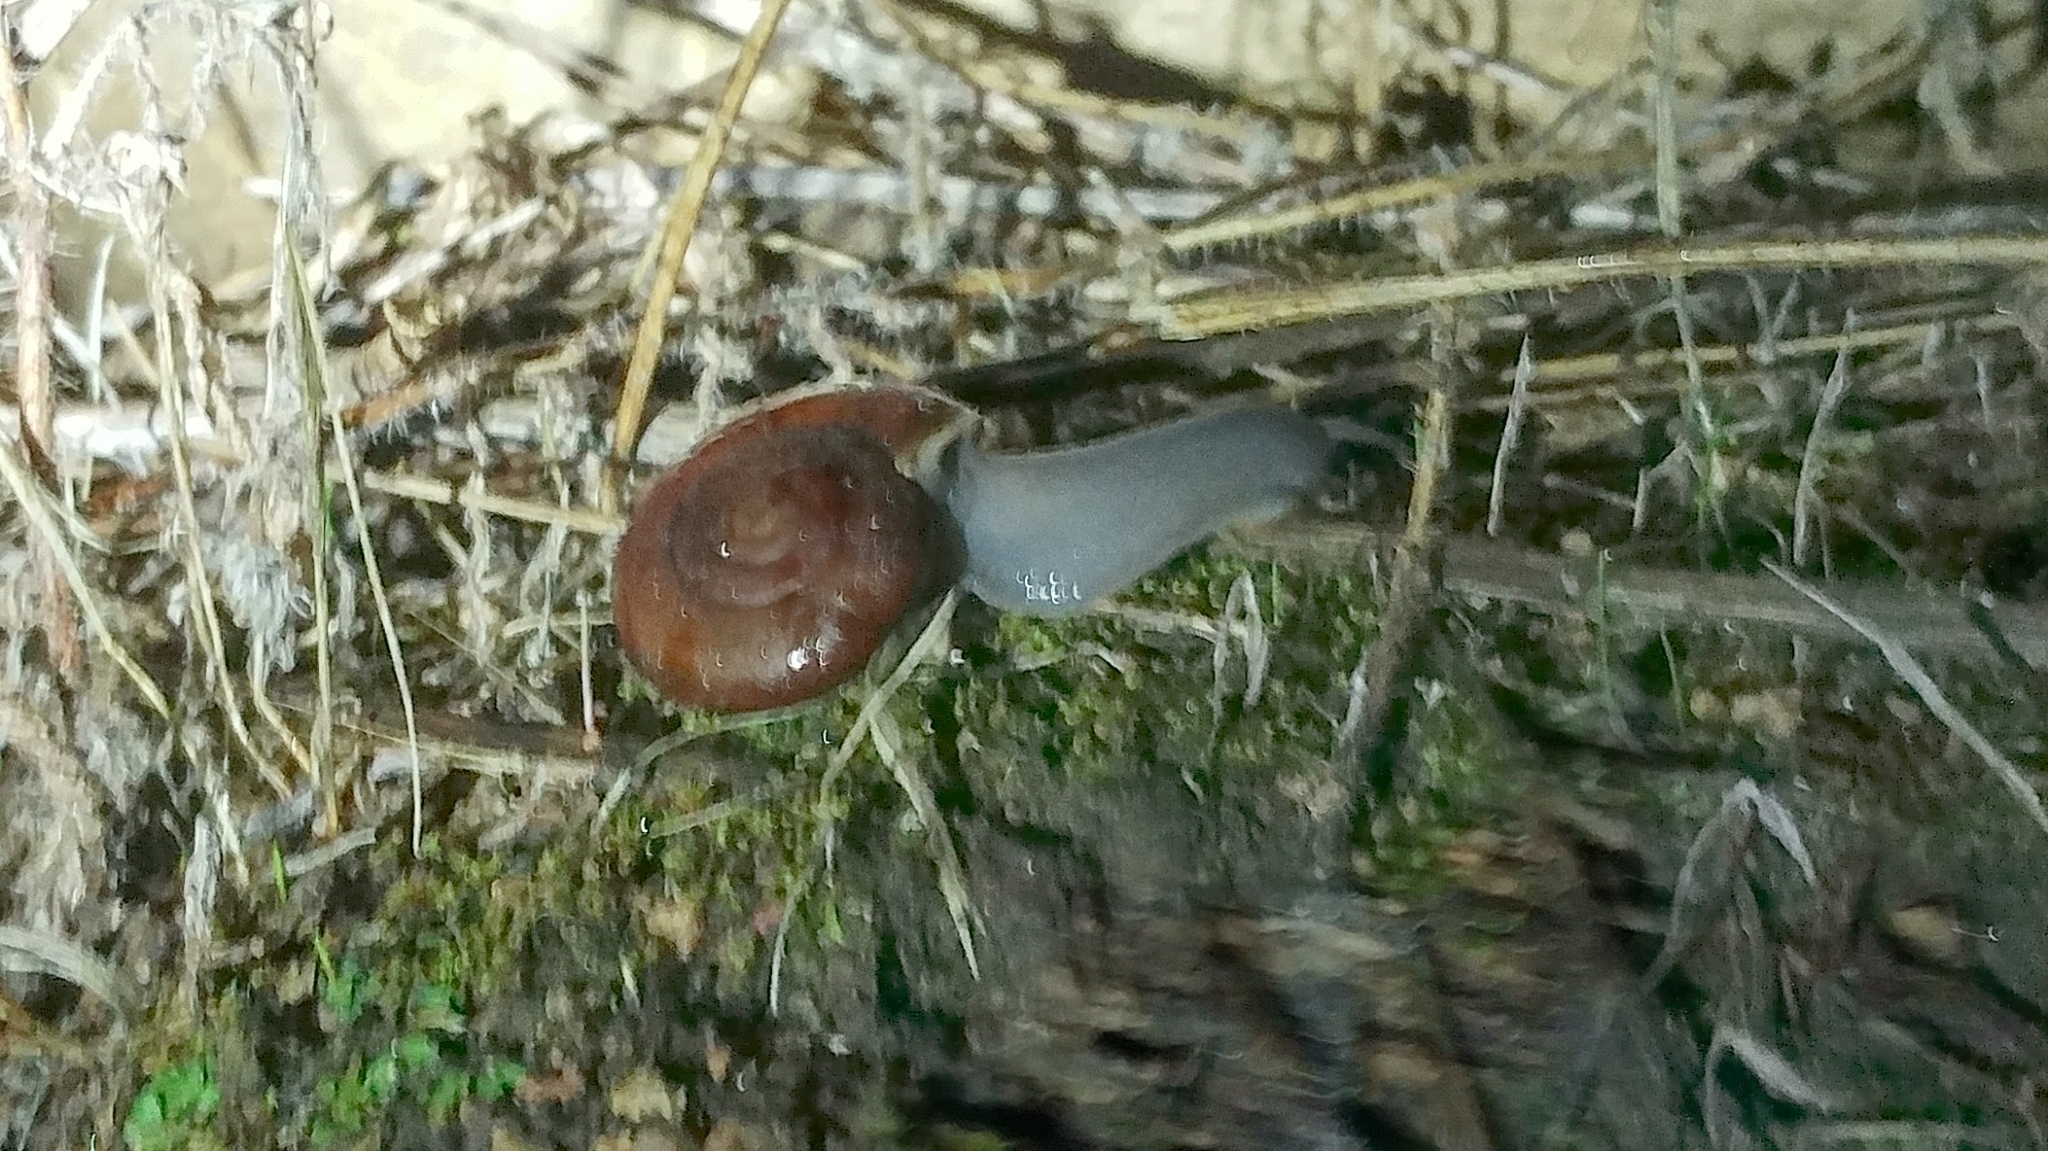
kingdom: Animalia
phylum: Mollusca
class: Gastropoda
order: Stylommatophora
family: Megomphicidae
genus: Glyptostoma
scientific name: Glyptostoma newberryanum
